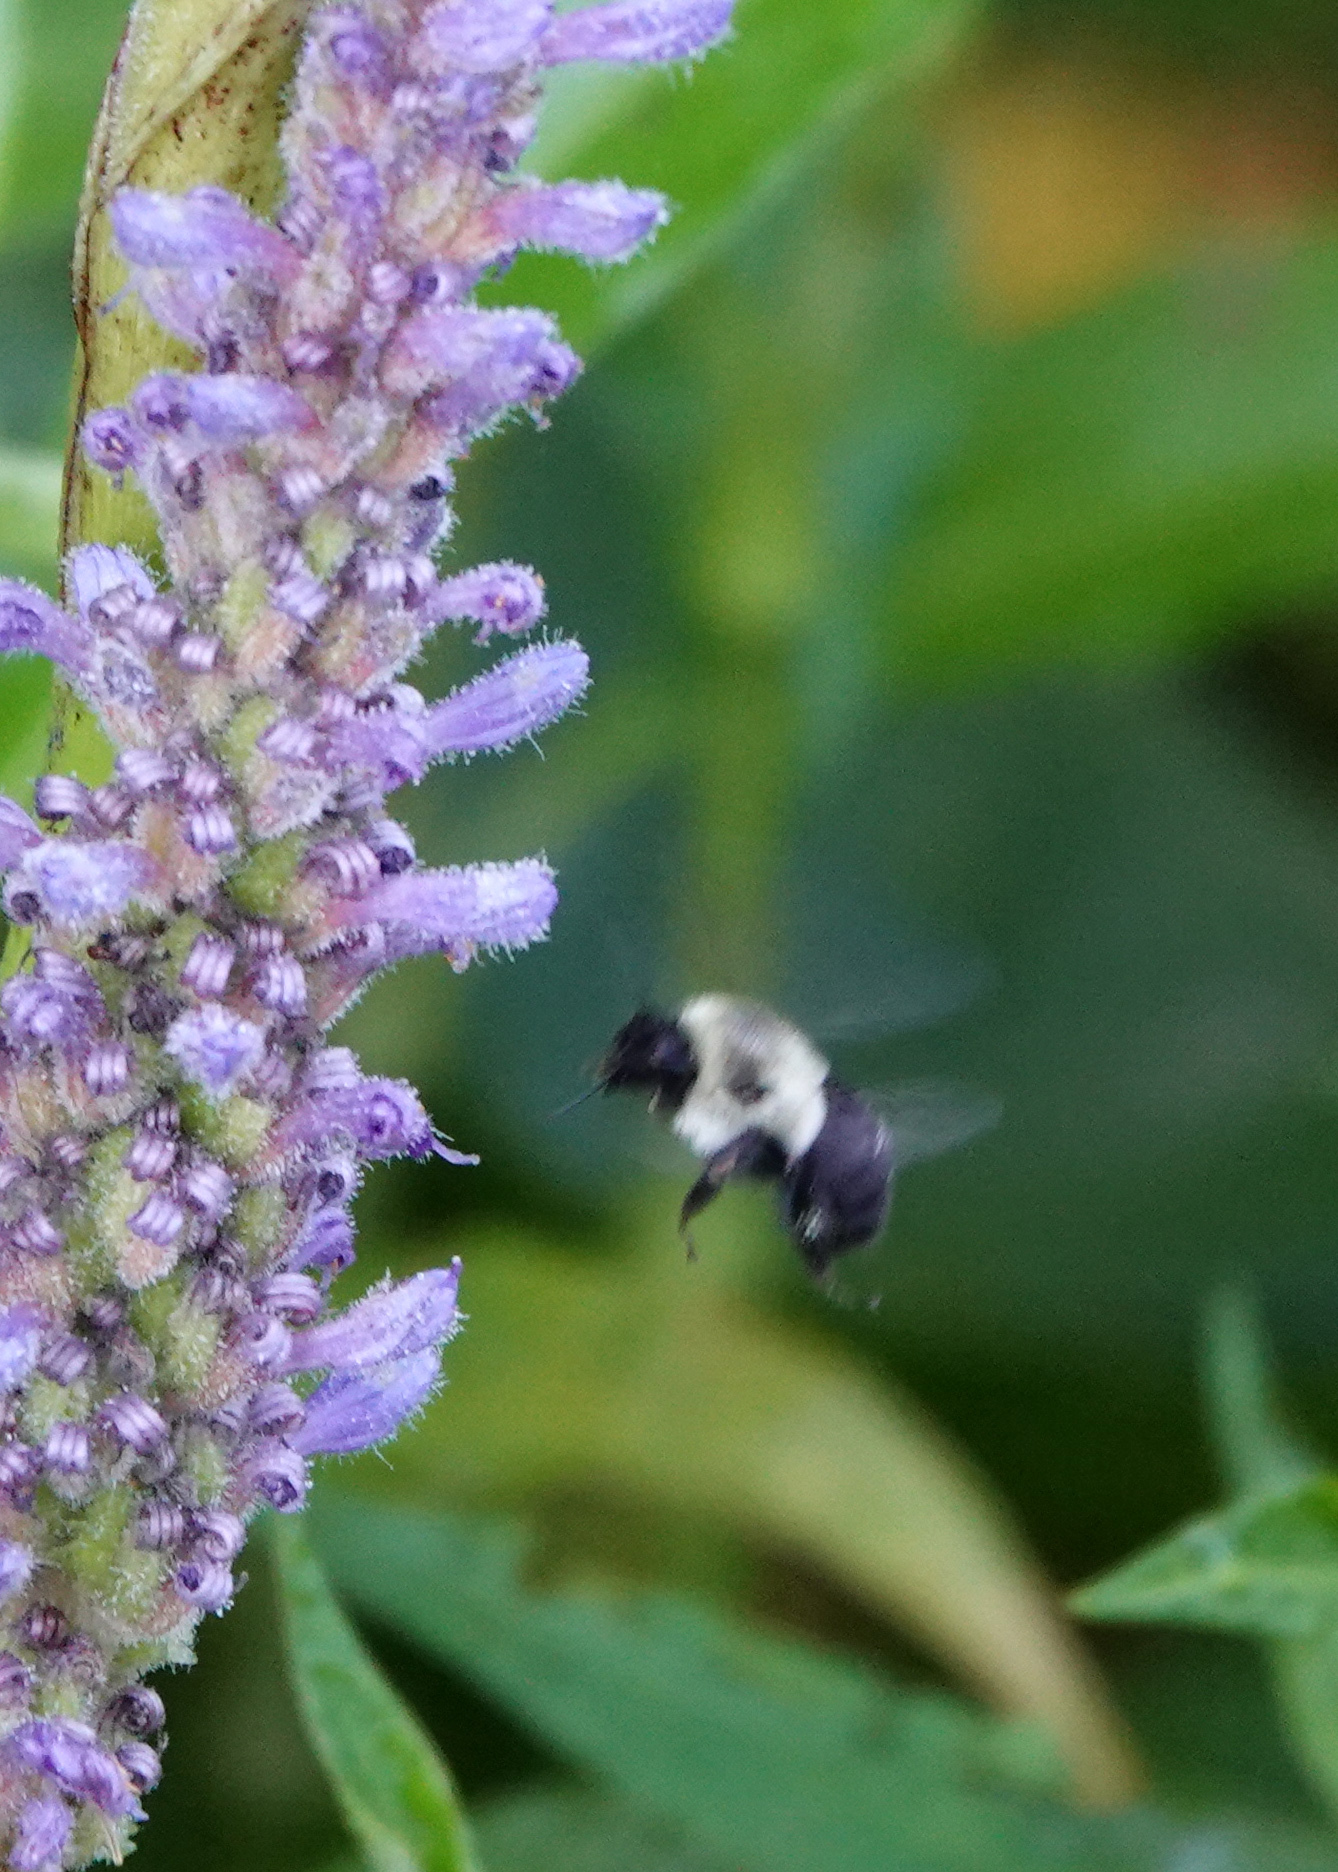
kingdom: Animalia
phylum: Arthropoda
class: Insecta
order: Hymenoptera
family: Apidae
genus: Bombus
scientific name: Bombus impatiens
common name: Common eastern bumble bee
